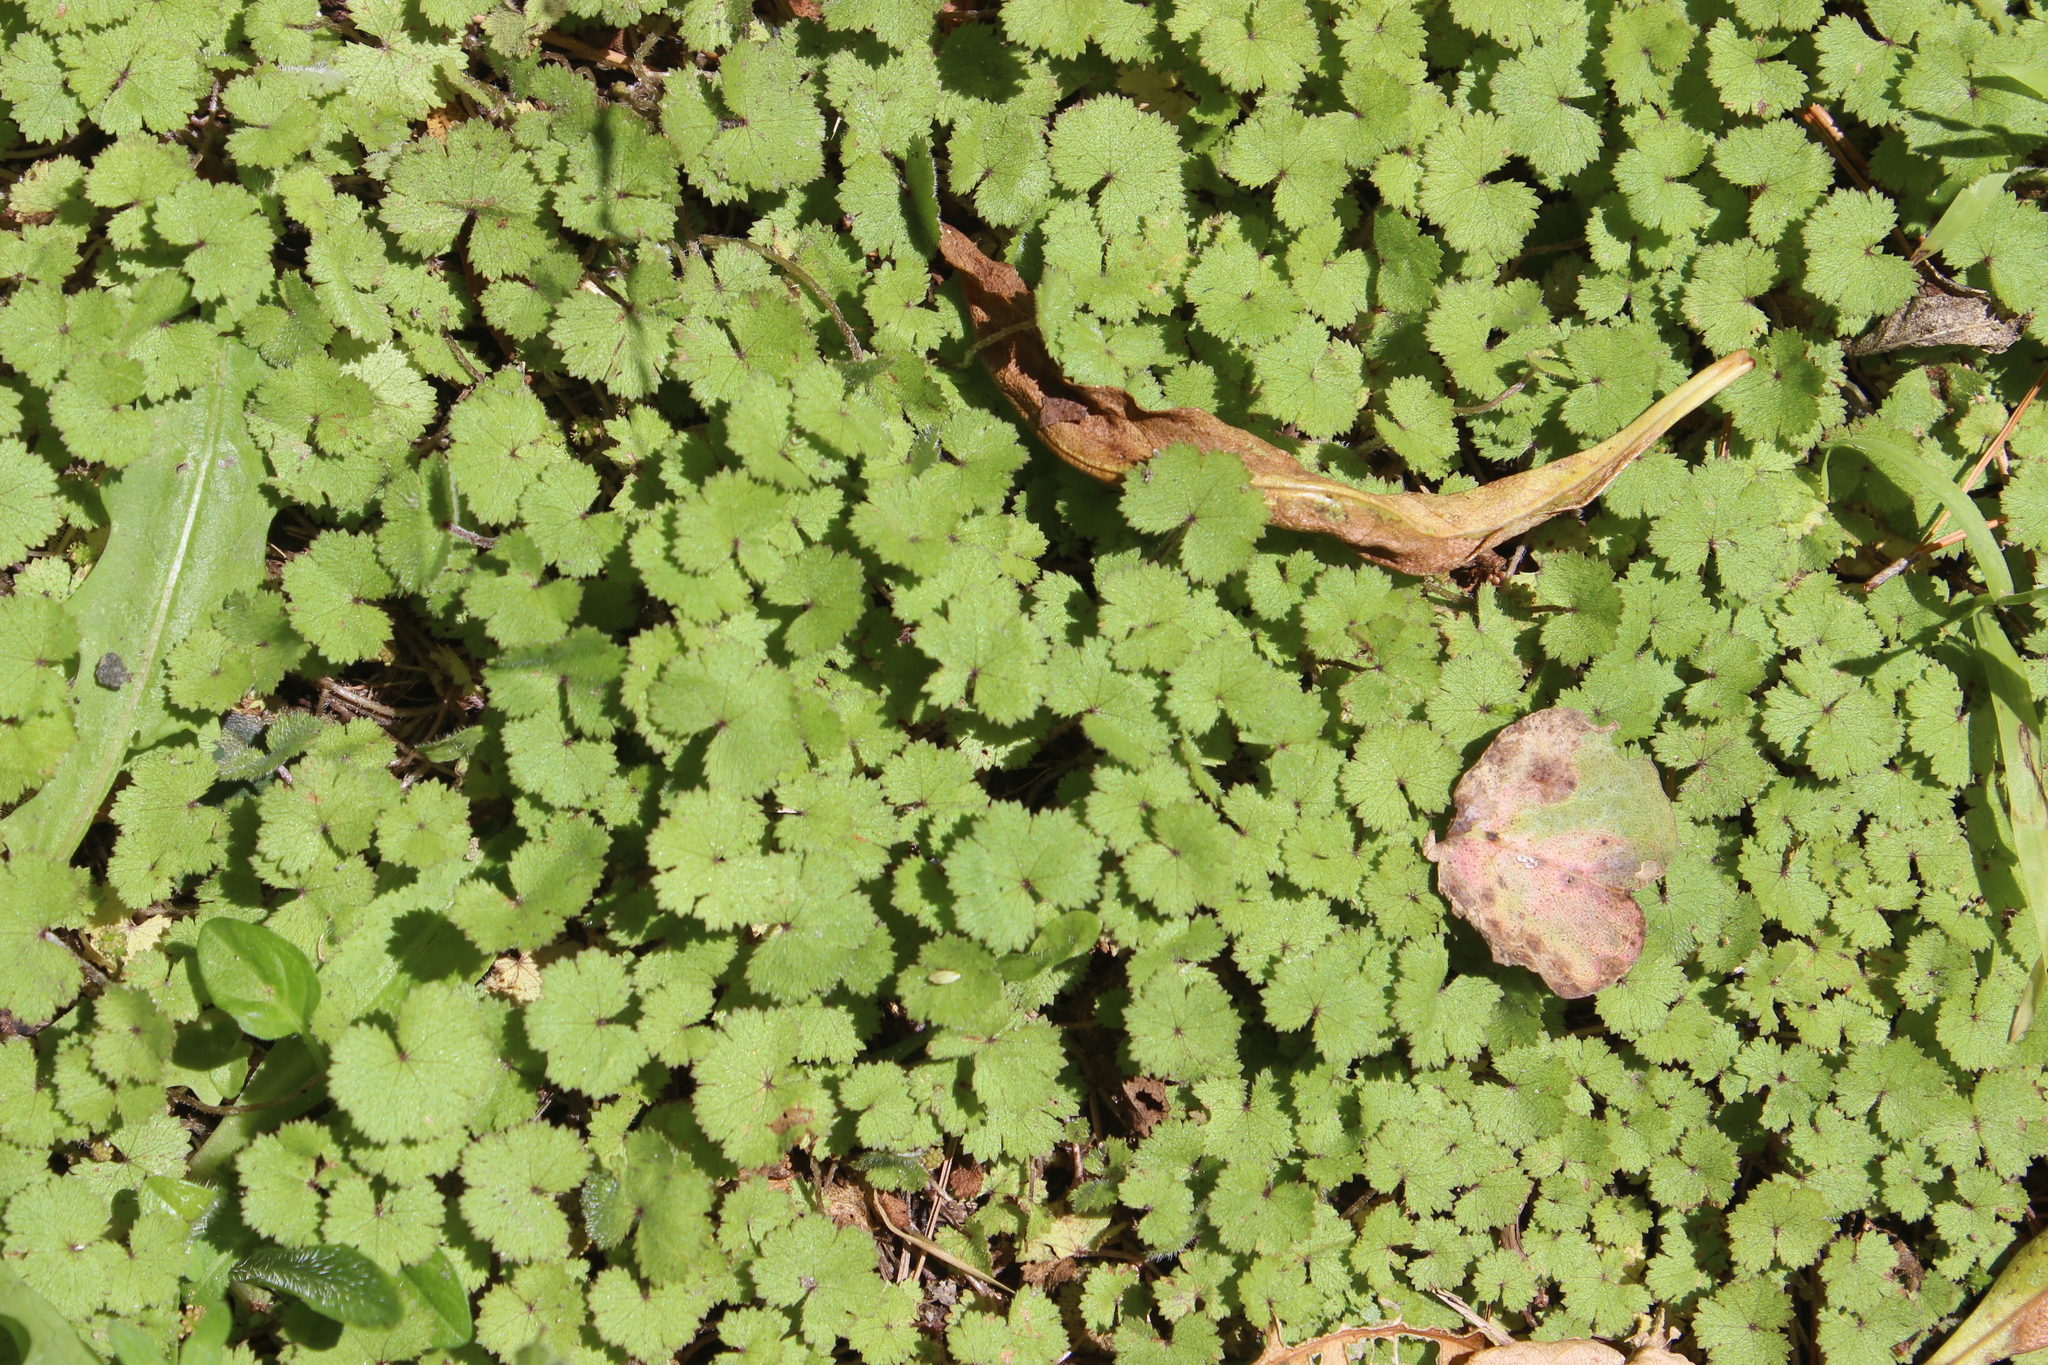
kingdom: Plantae
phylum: Tracheophyta
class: Magnoliopsida
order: Apiales
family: Araliaceae
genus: Hydrocotyle
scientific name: Hydrocotyle moschata
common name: Hairy pennywort
